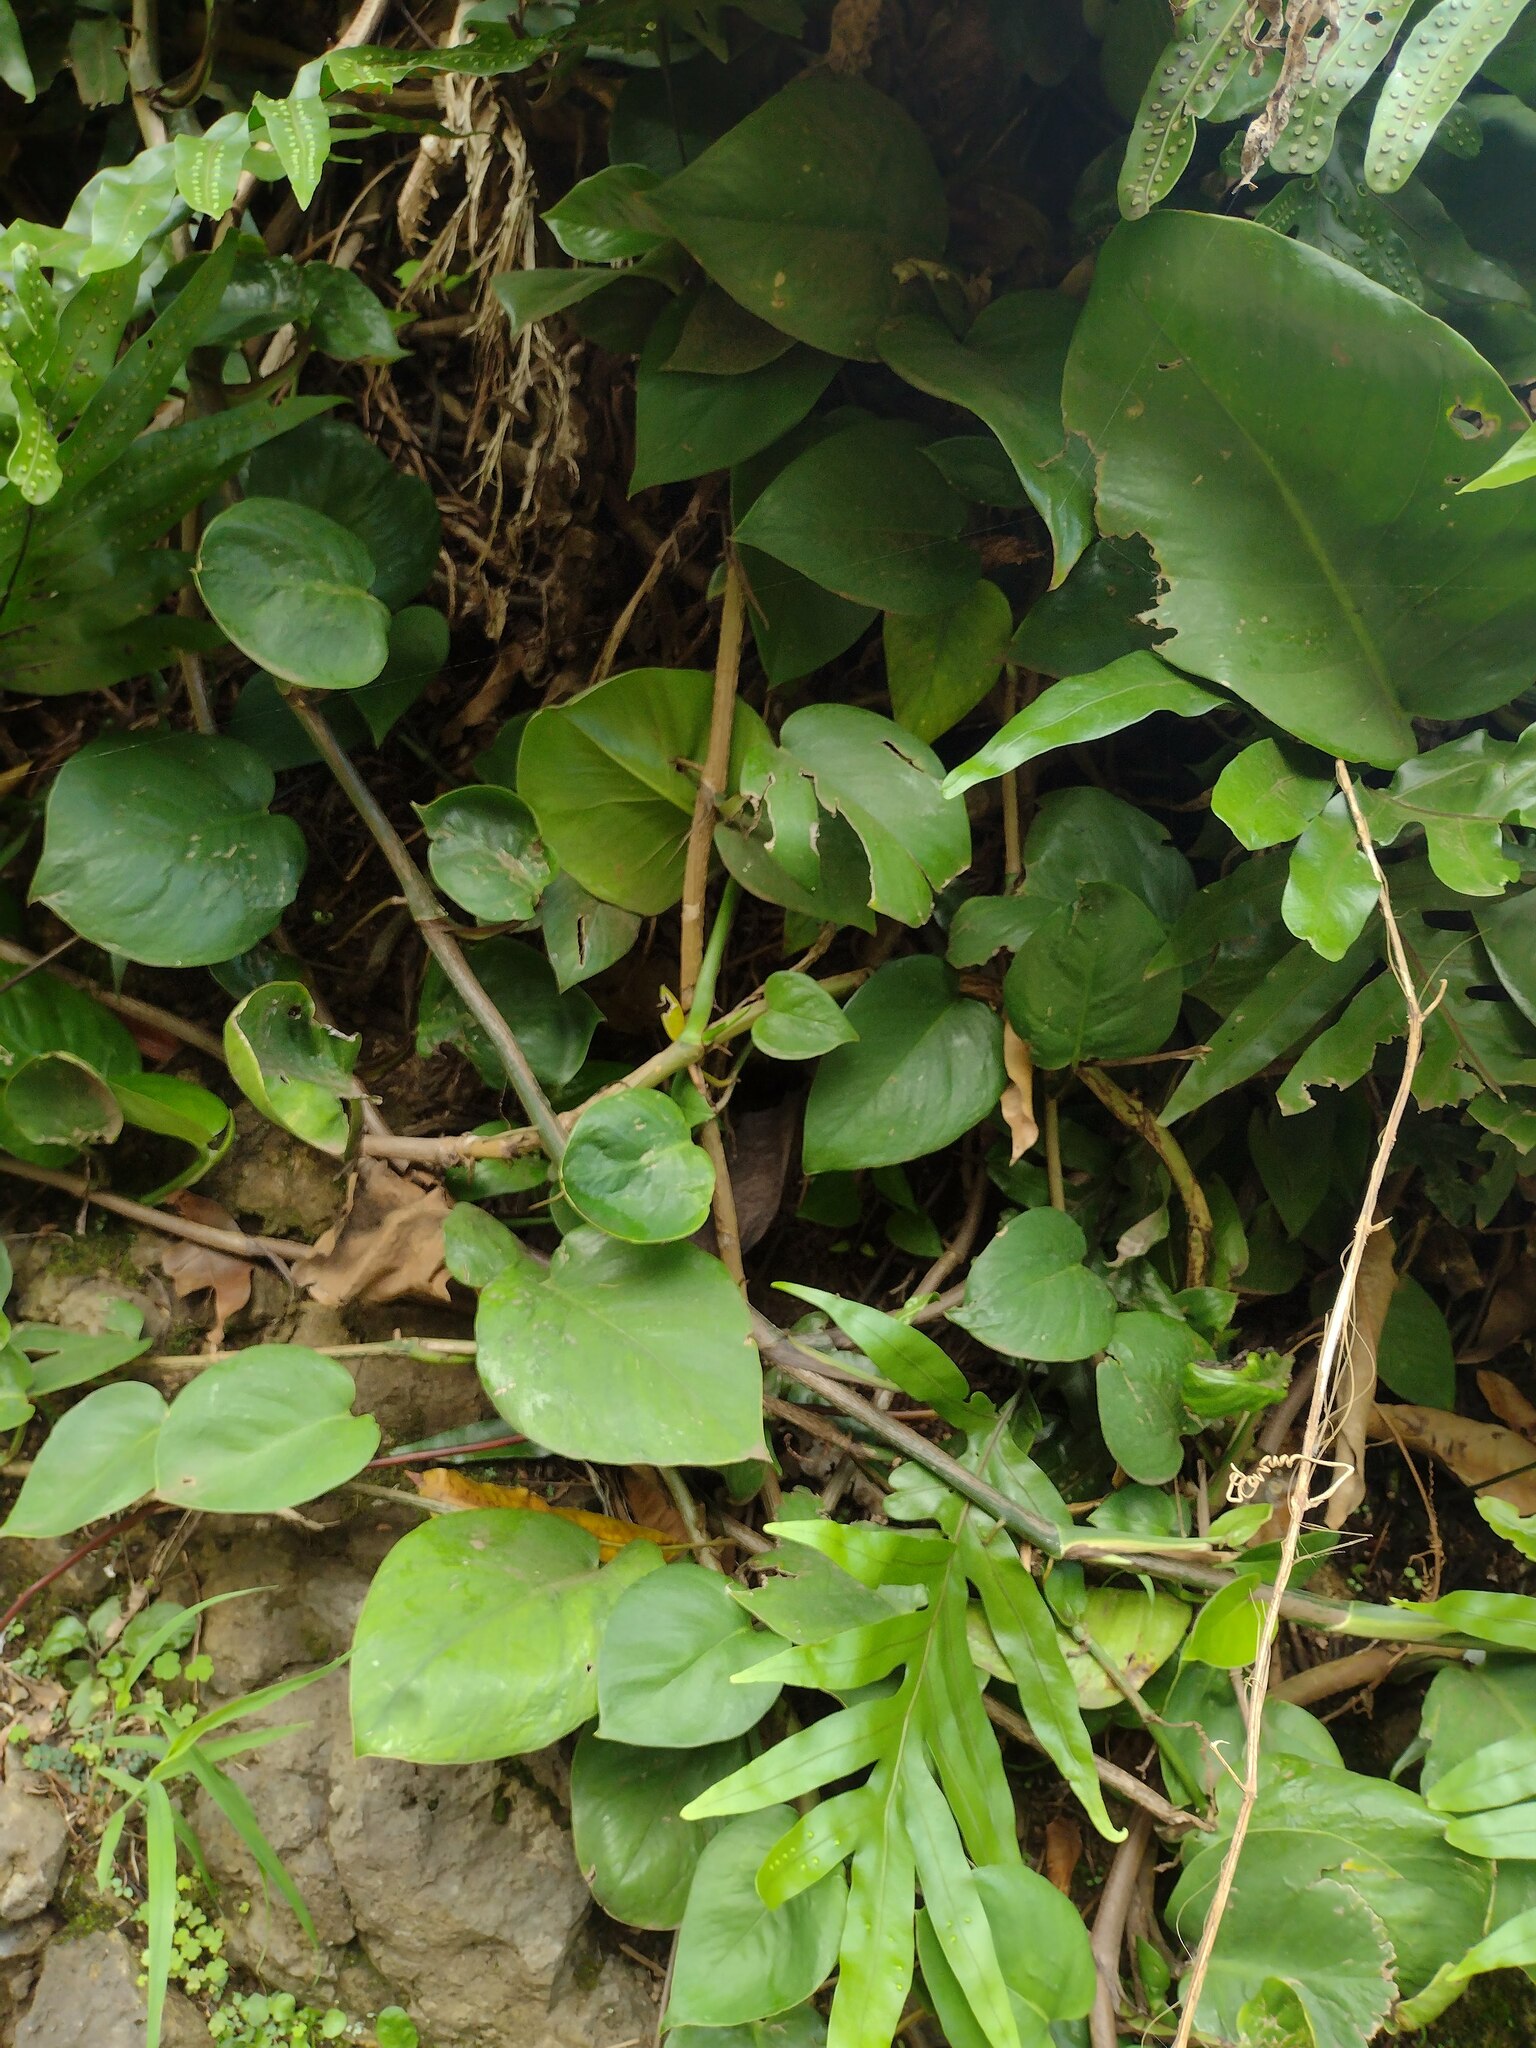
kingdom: Plantae
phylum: Tracheophyta
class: Liliopsida
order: Alismatales
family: Araceae
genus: Epipremnum
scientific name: Epipremnum aureum
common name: Golden hunter's-robe
